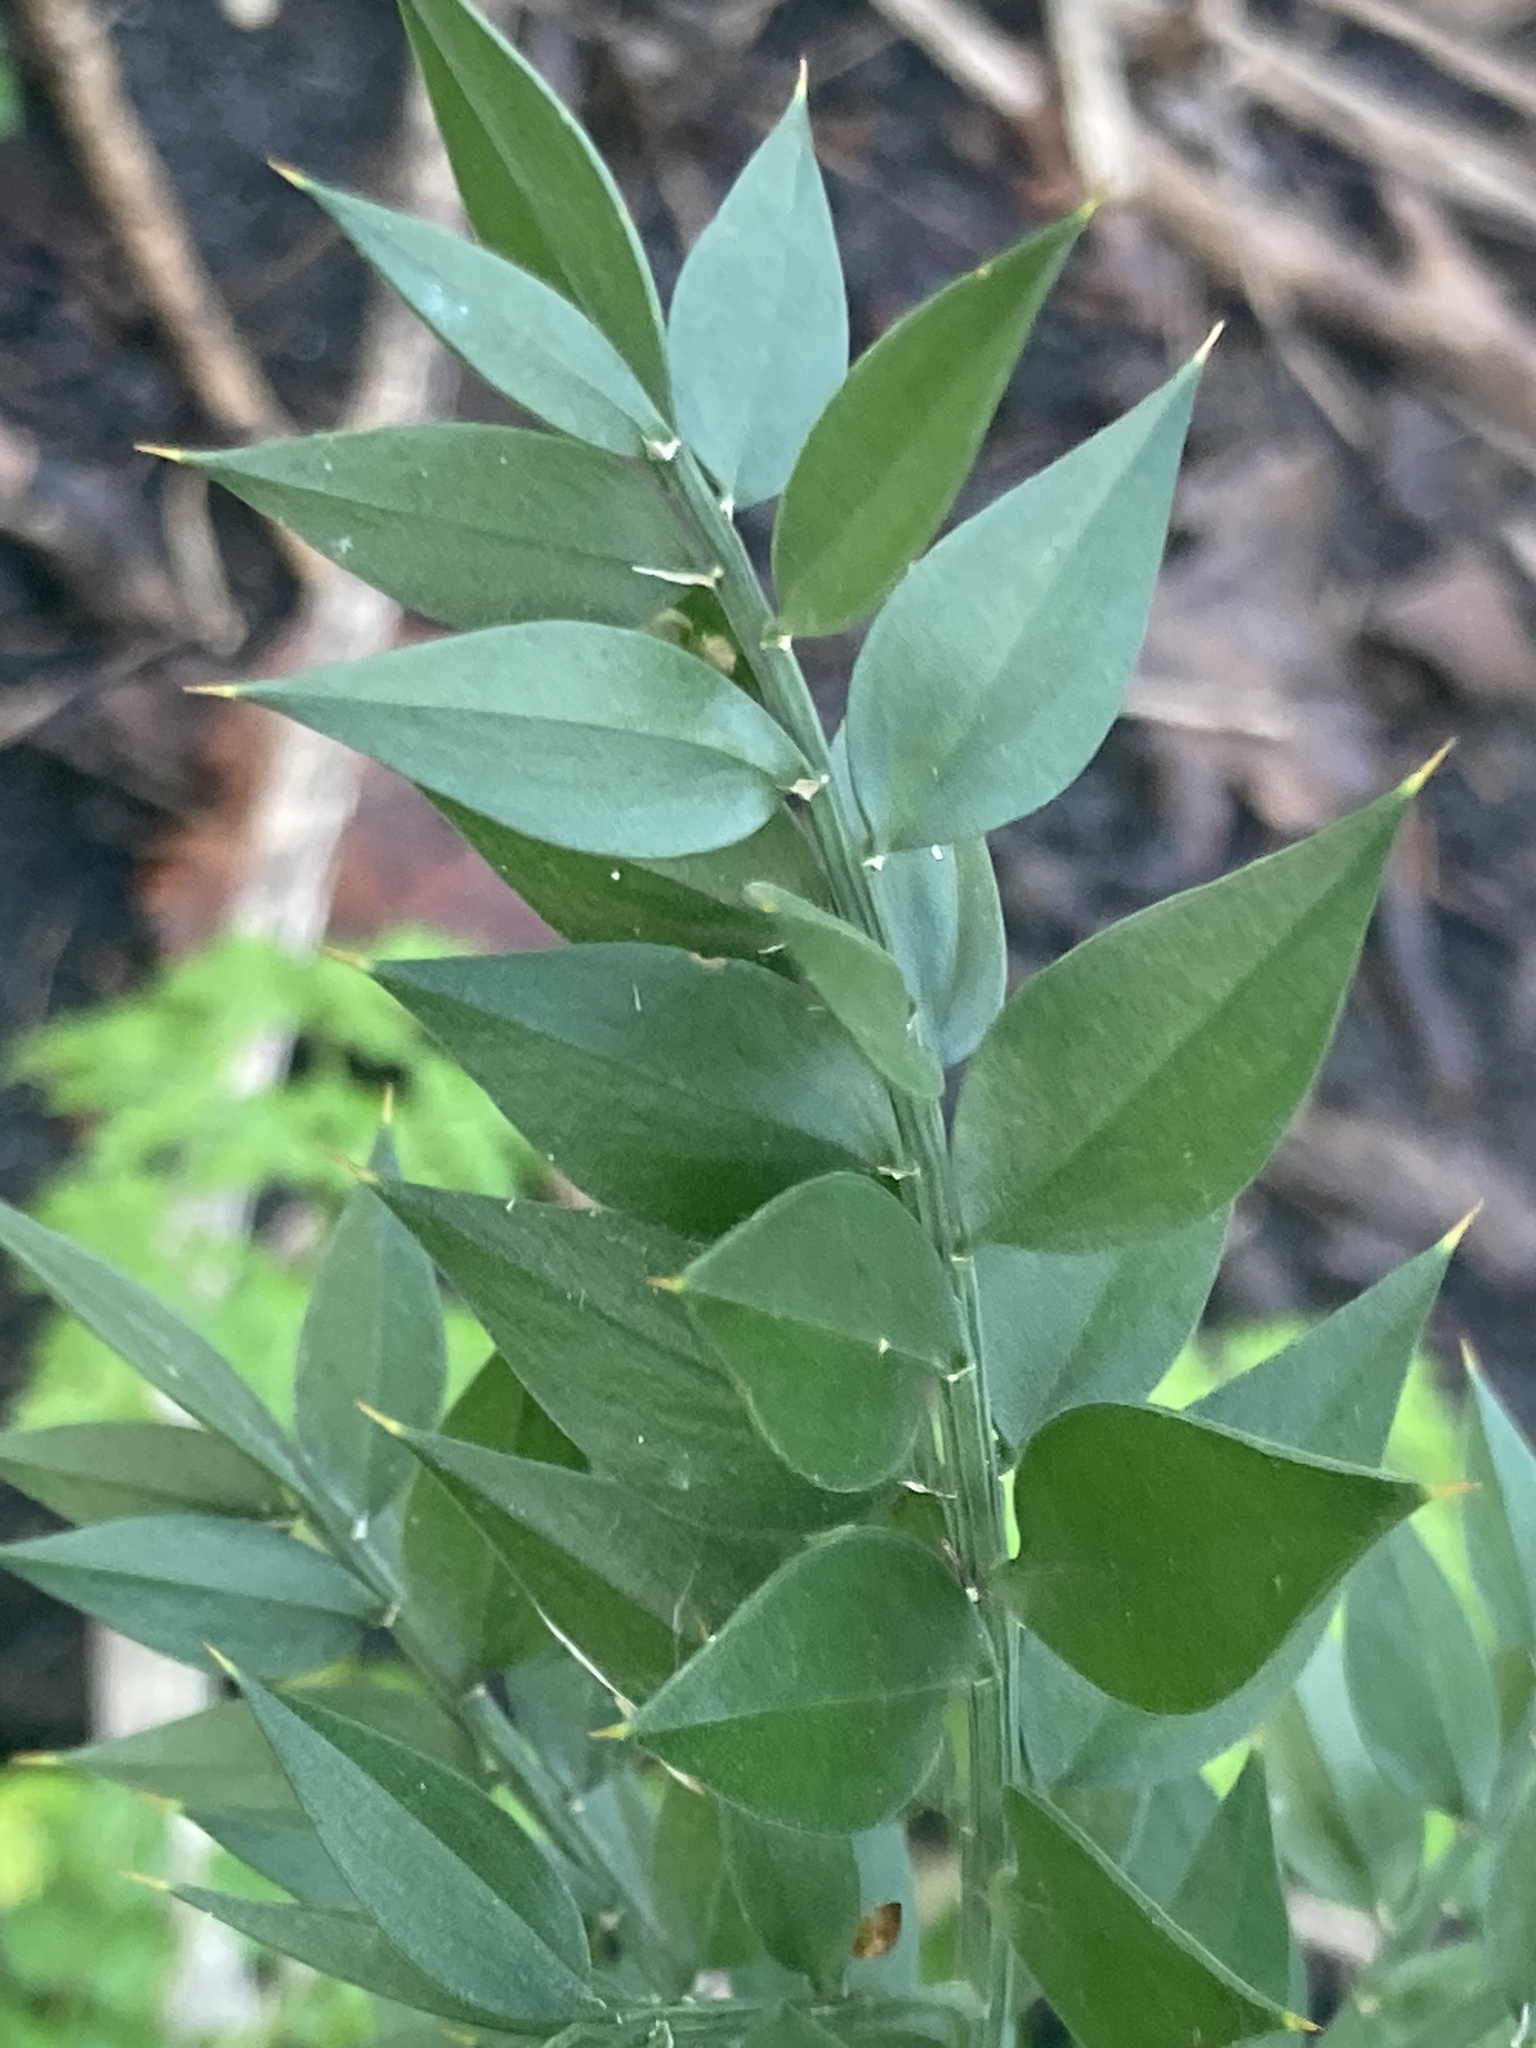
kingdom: Plantae
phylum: Tracheophyta
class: Liliopsida
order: Asparagales
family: Asparagaceae
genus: Ruscus
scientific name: Ruscus aculeatus
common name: Butcher's-broom
